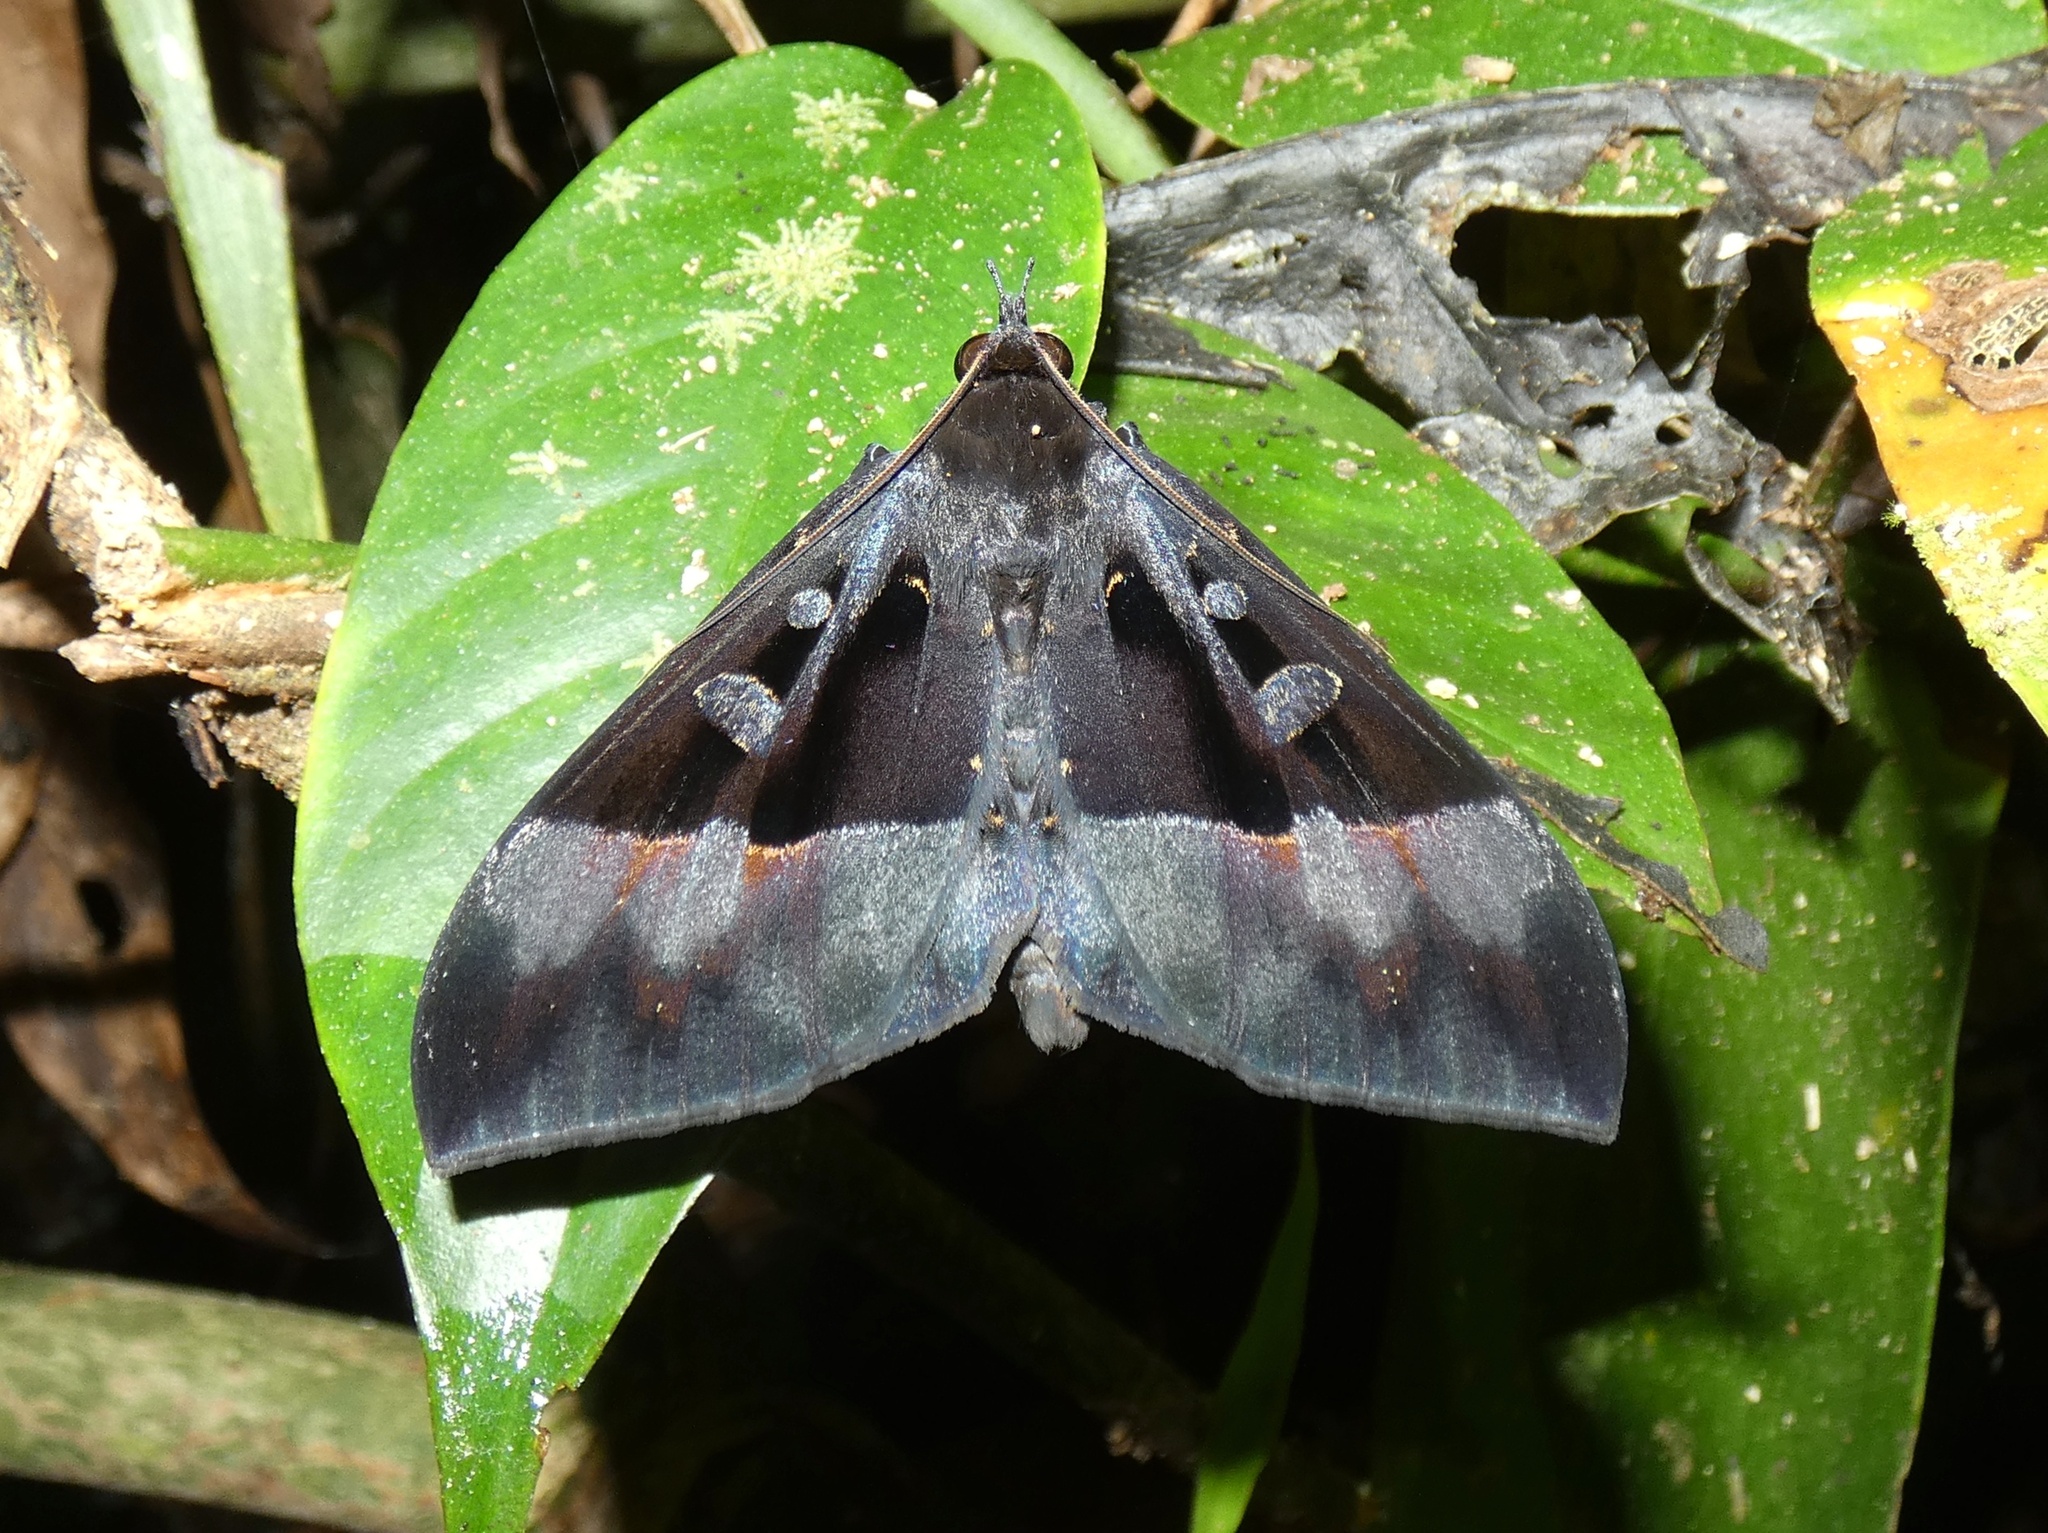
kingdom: Animalia
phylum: Arthropoda
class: Insecta
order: Lepidoptera
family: Erebidae
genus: Ischyja
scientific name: Ischyja ebusa
